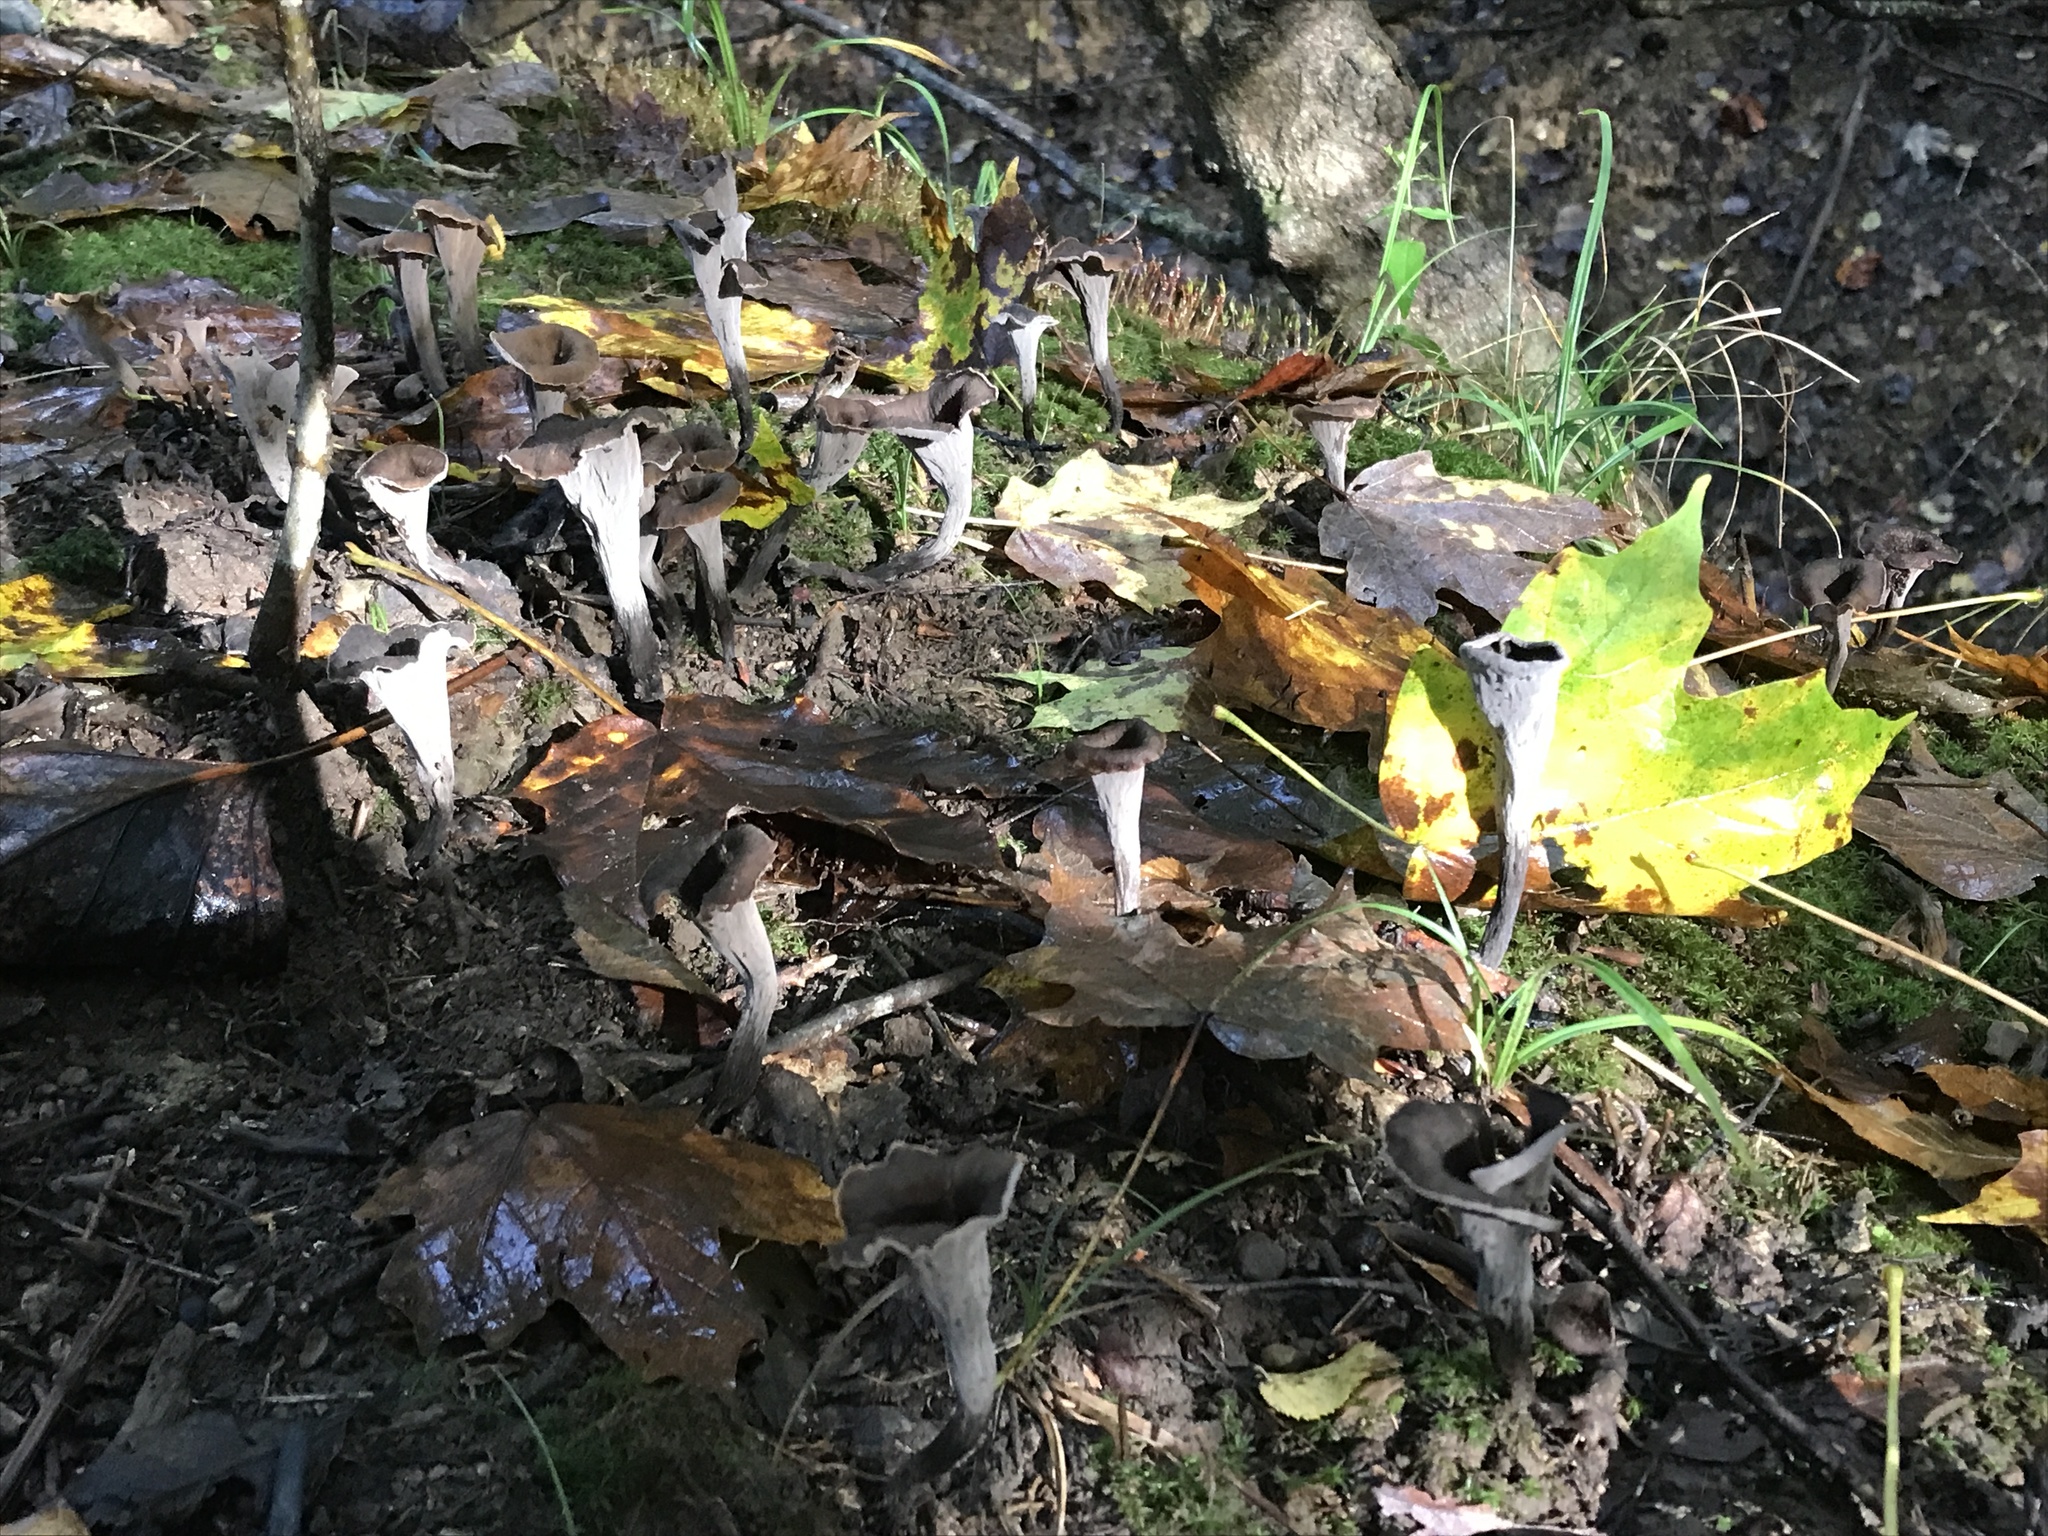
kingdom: Fungi
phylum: Basidiomycota
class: Agaricomycetes
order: Cantharellales
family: Hydnaceae
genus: Craterellus
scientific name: Craterellus cornucopioides
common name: Horn of plenty
